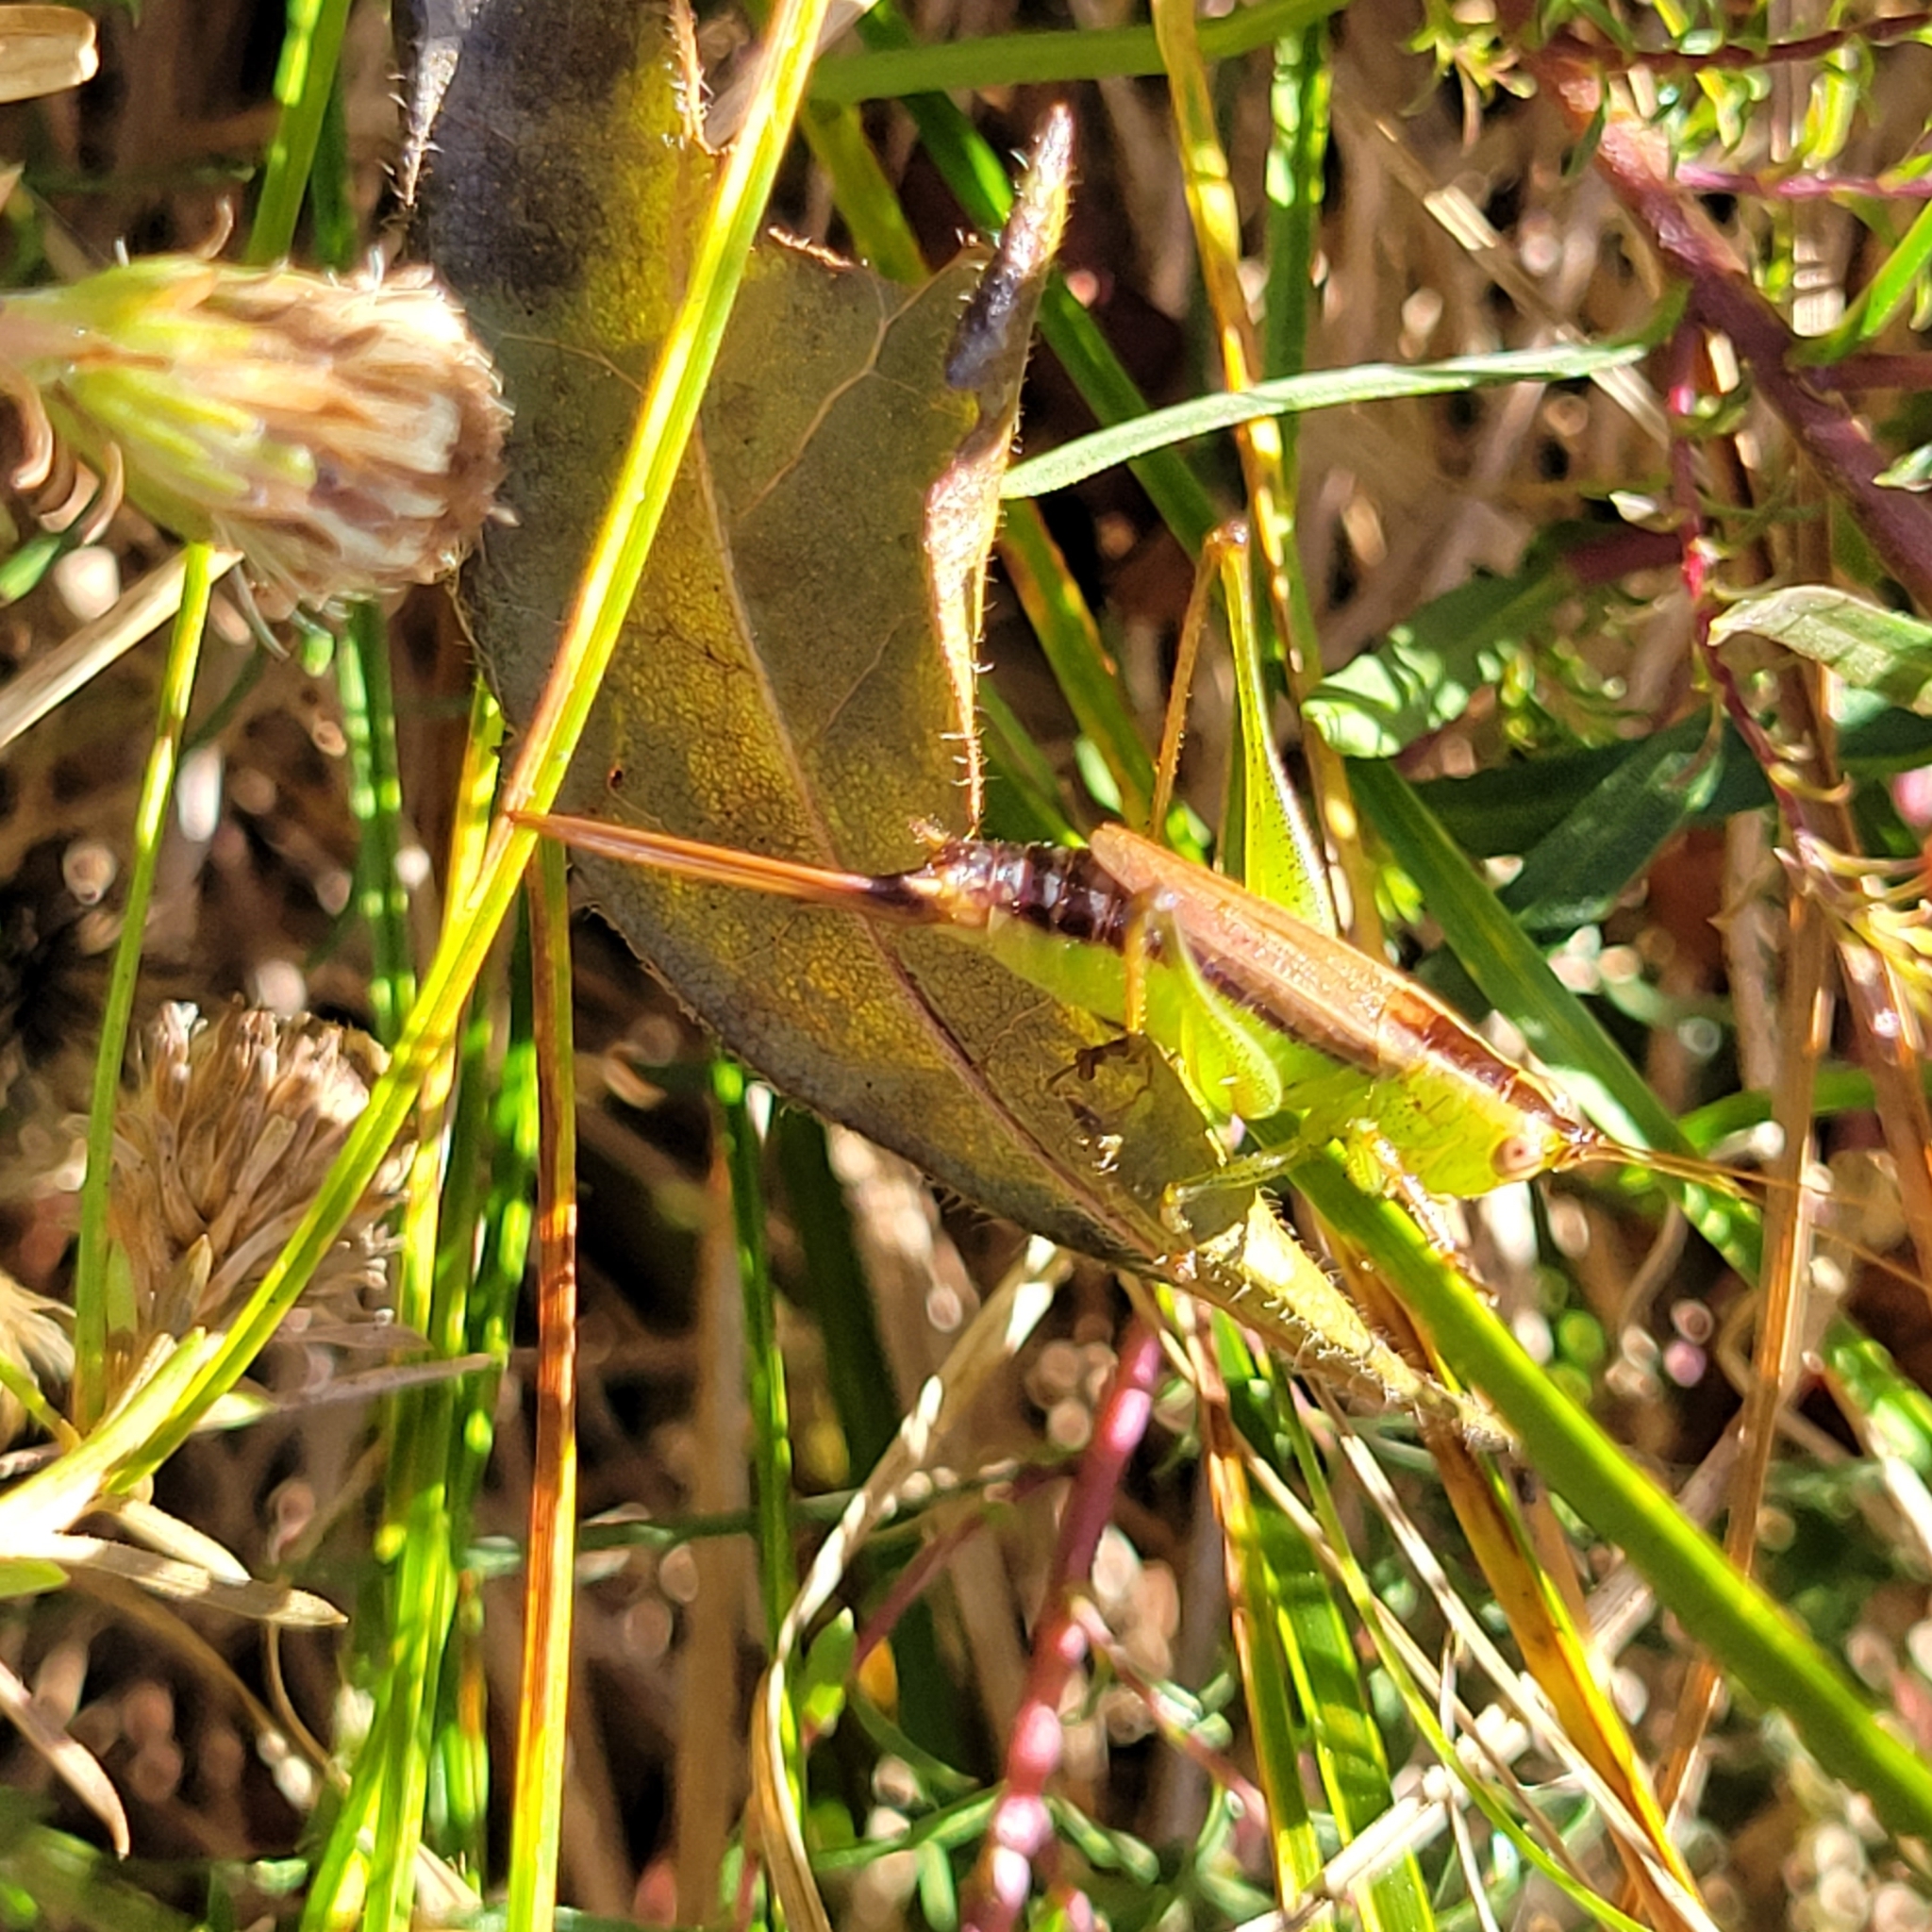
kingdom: Animalia
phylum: Arthropoda
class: Insecta
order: Orthoptera
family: Tettigoniidae
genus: Conocephalus
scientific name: Conocephalus brevipennis
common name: Short-winged meadow katydid
